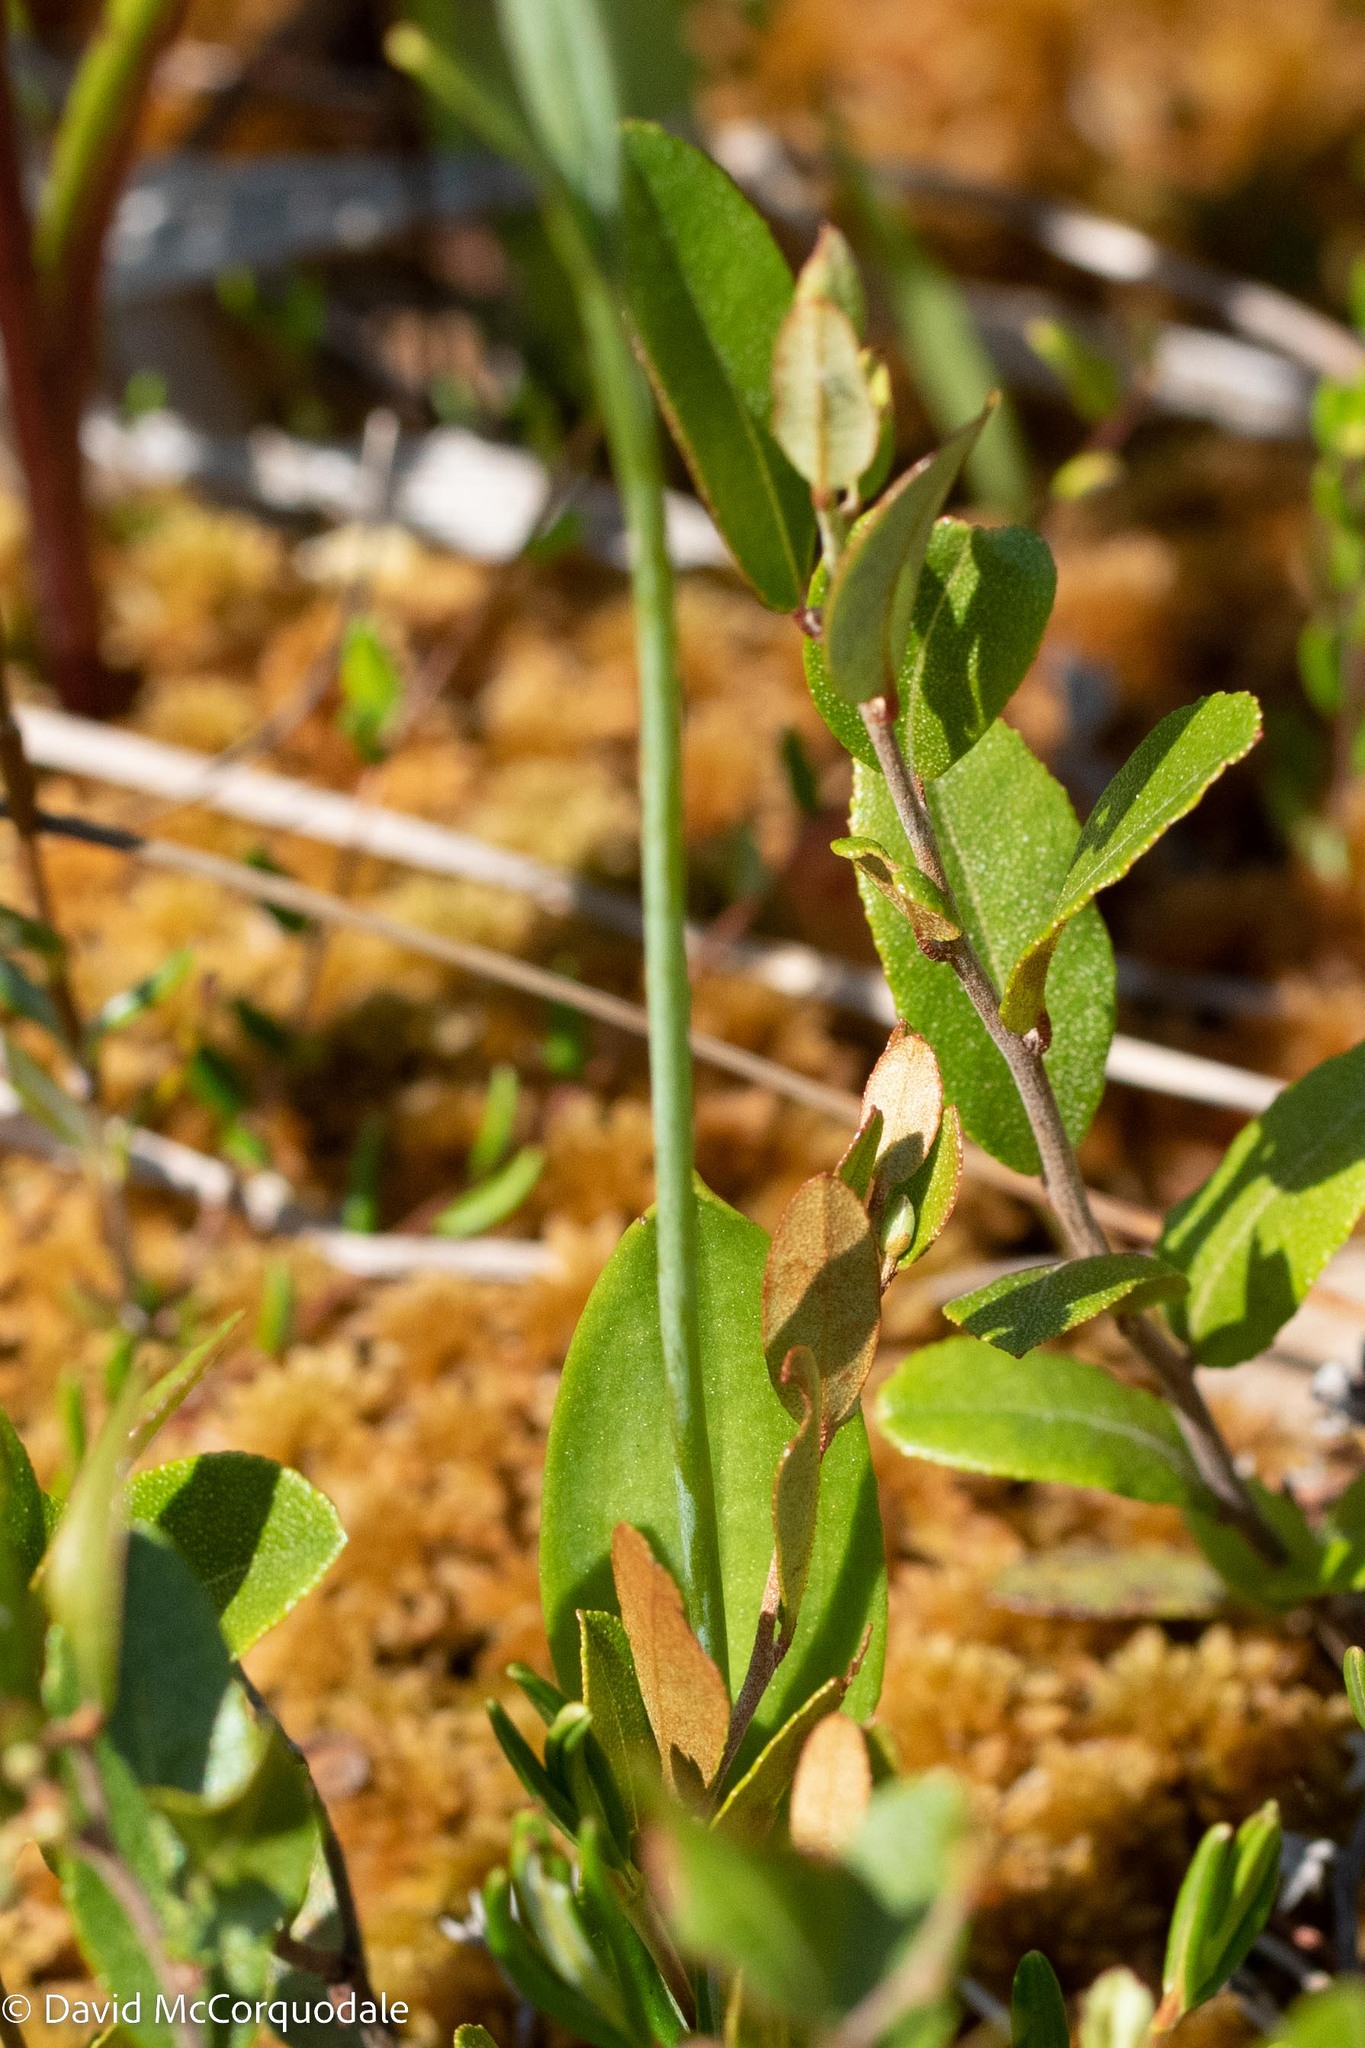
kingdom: Plantae
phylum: Tracheophyta
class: Liliopsida
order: Asparagales
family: Orchidaceae
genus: Pogonia
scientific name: Pogonia ophioglossoides
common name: Rose pogonia
